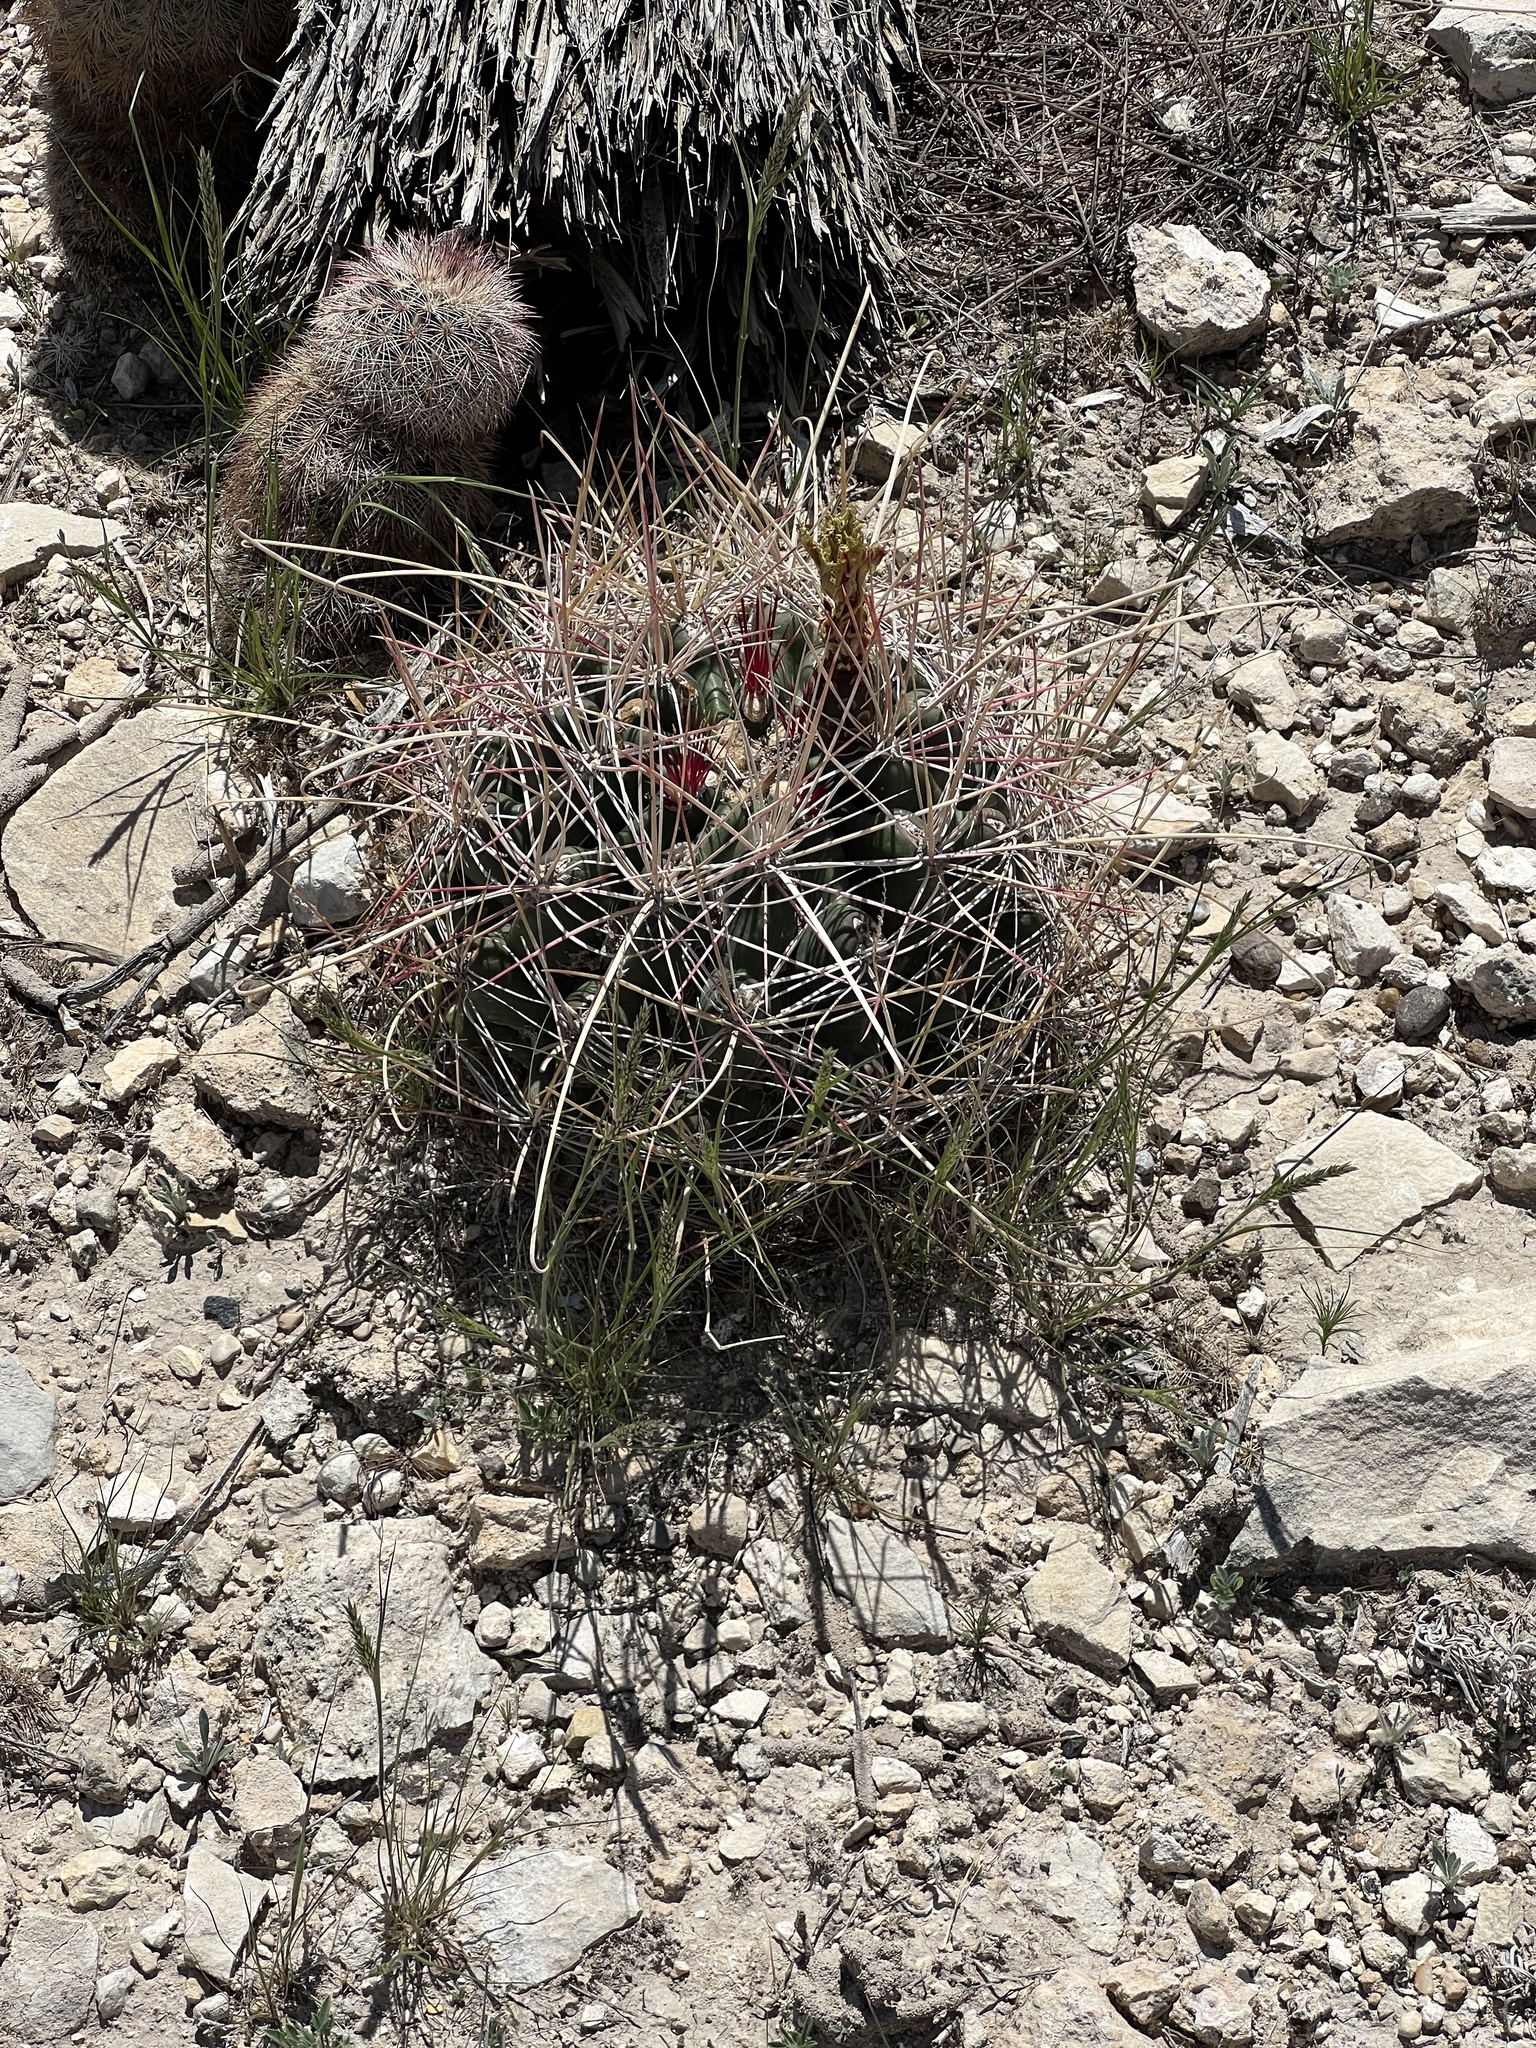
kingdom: Plantae
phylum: Tracheophyta
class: Magnoliopsida
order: Caryophyllales
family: Cactaceae
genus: Bisnaga
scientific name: Bisnaga hamatacantha
